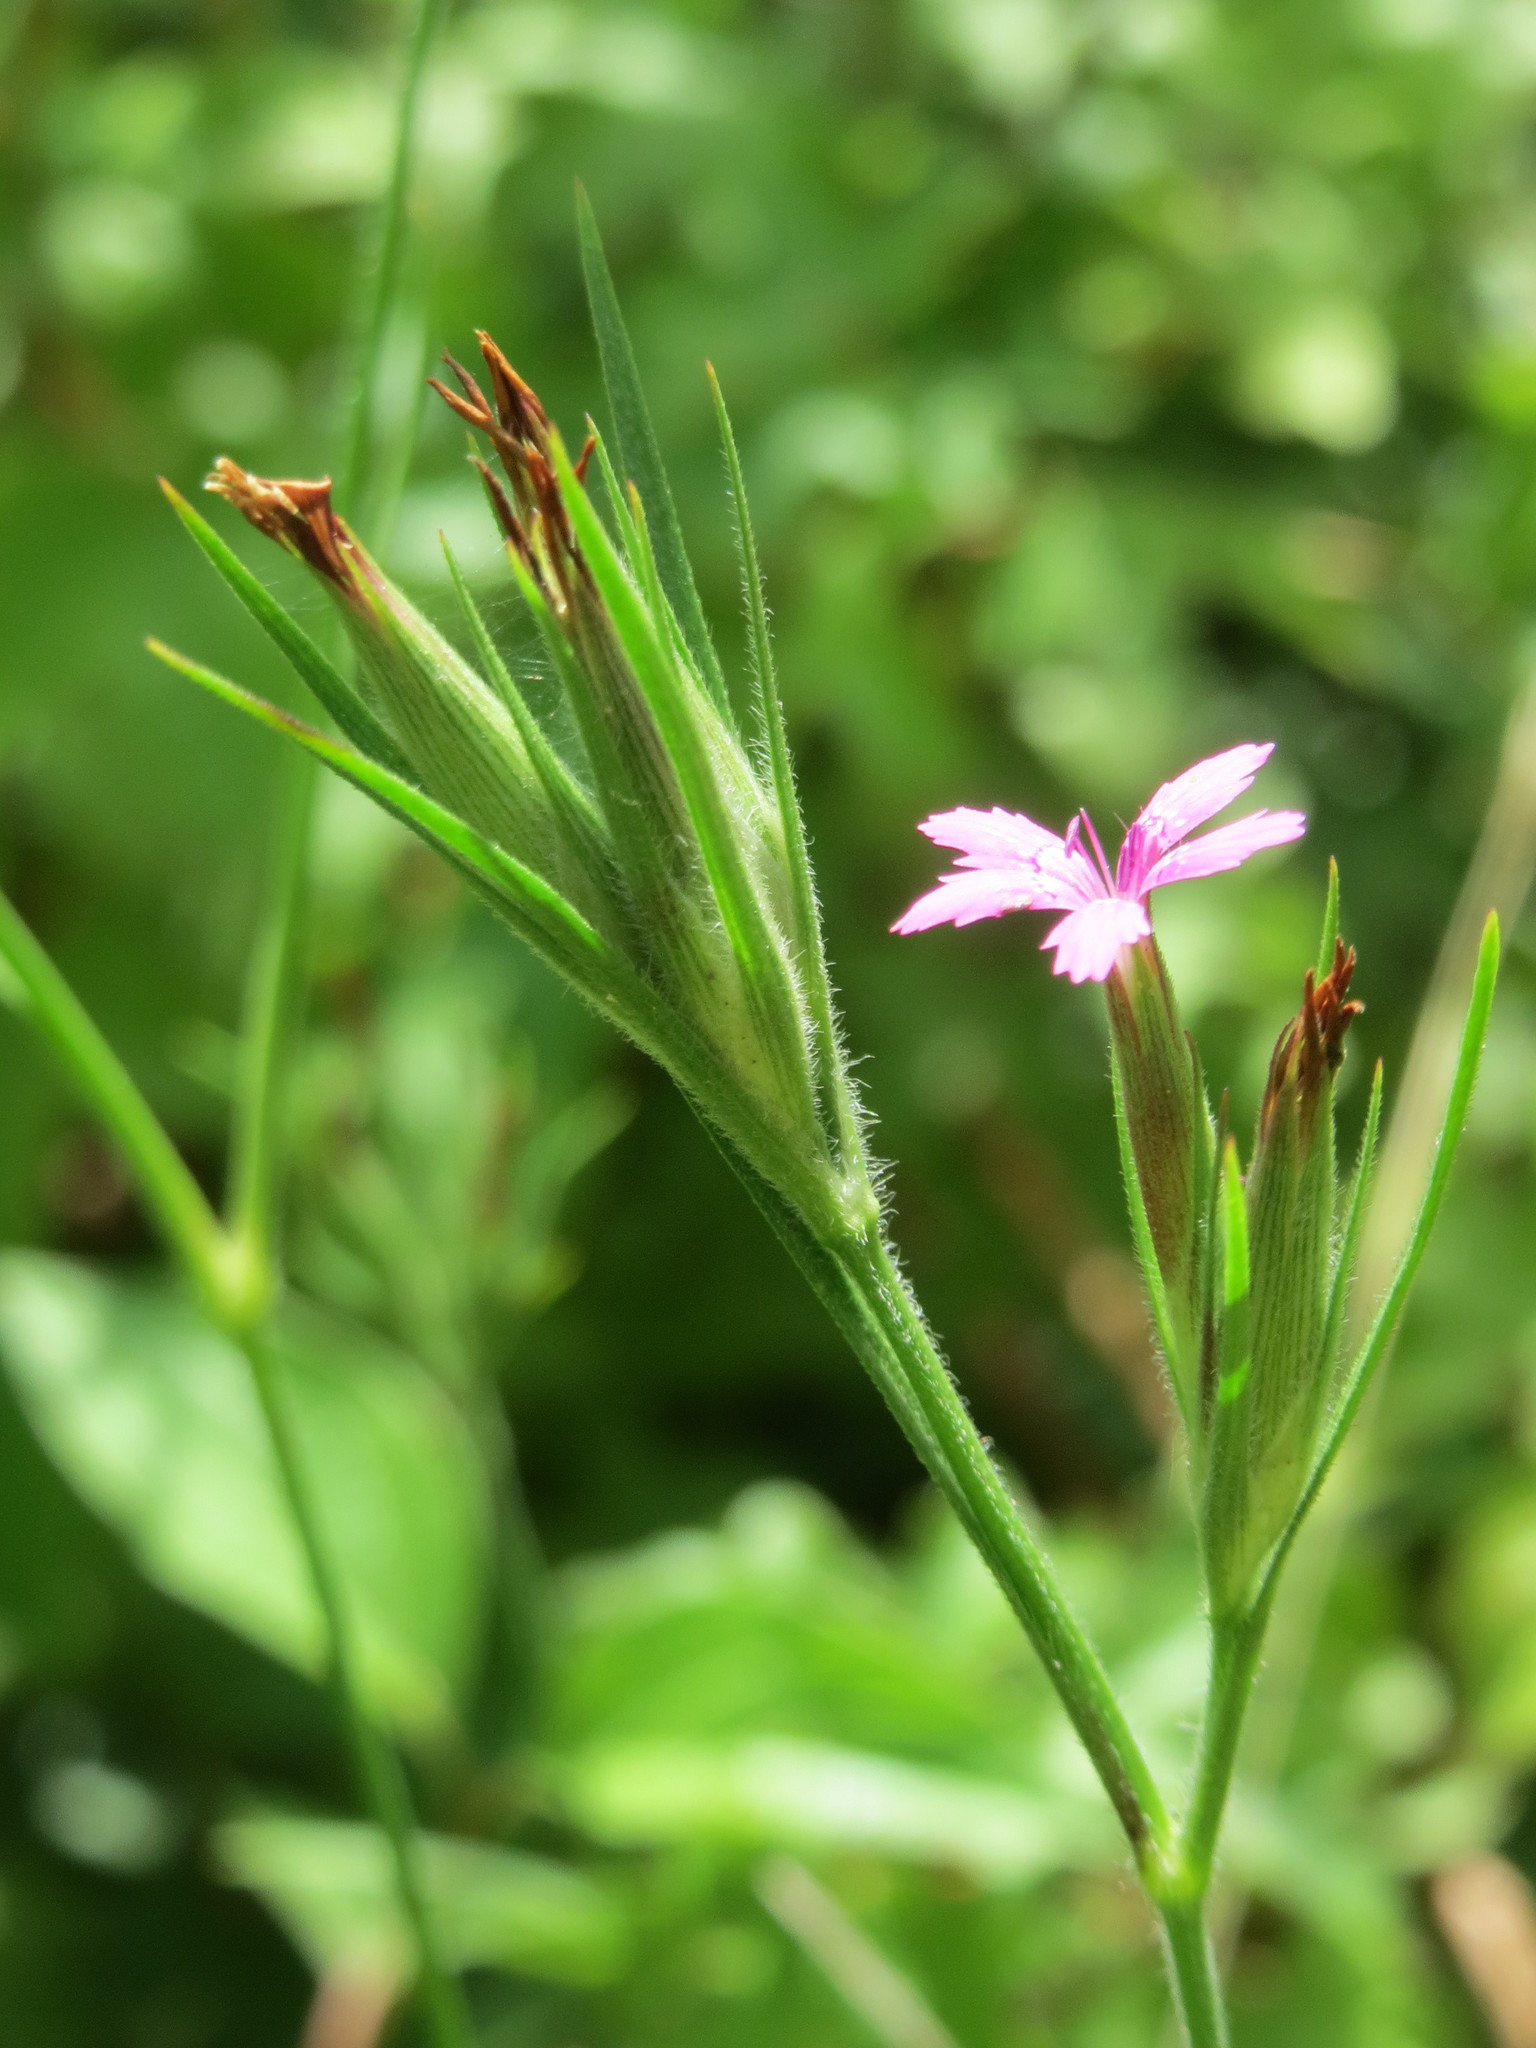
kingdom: Plantae
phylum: Tracheophyta
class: Magnoliopsida
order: Caryophyllales
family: Caryophyllaceae
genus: Dianthus
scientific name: Dianthus armeria
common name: Deptford pink
